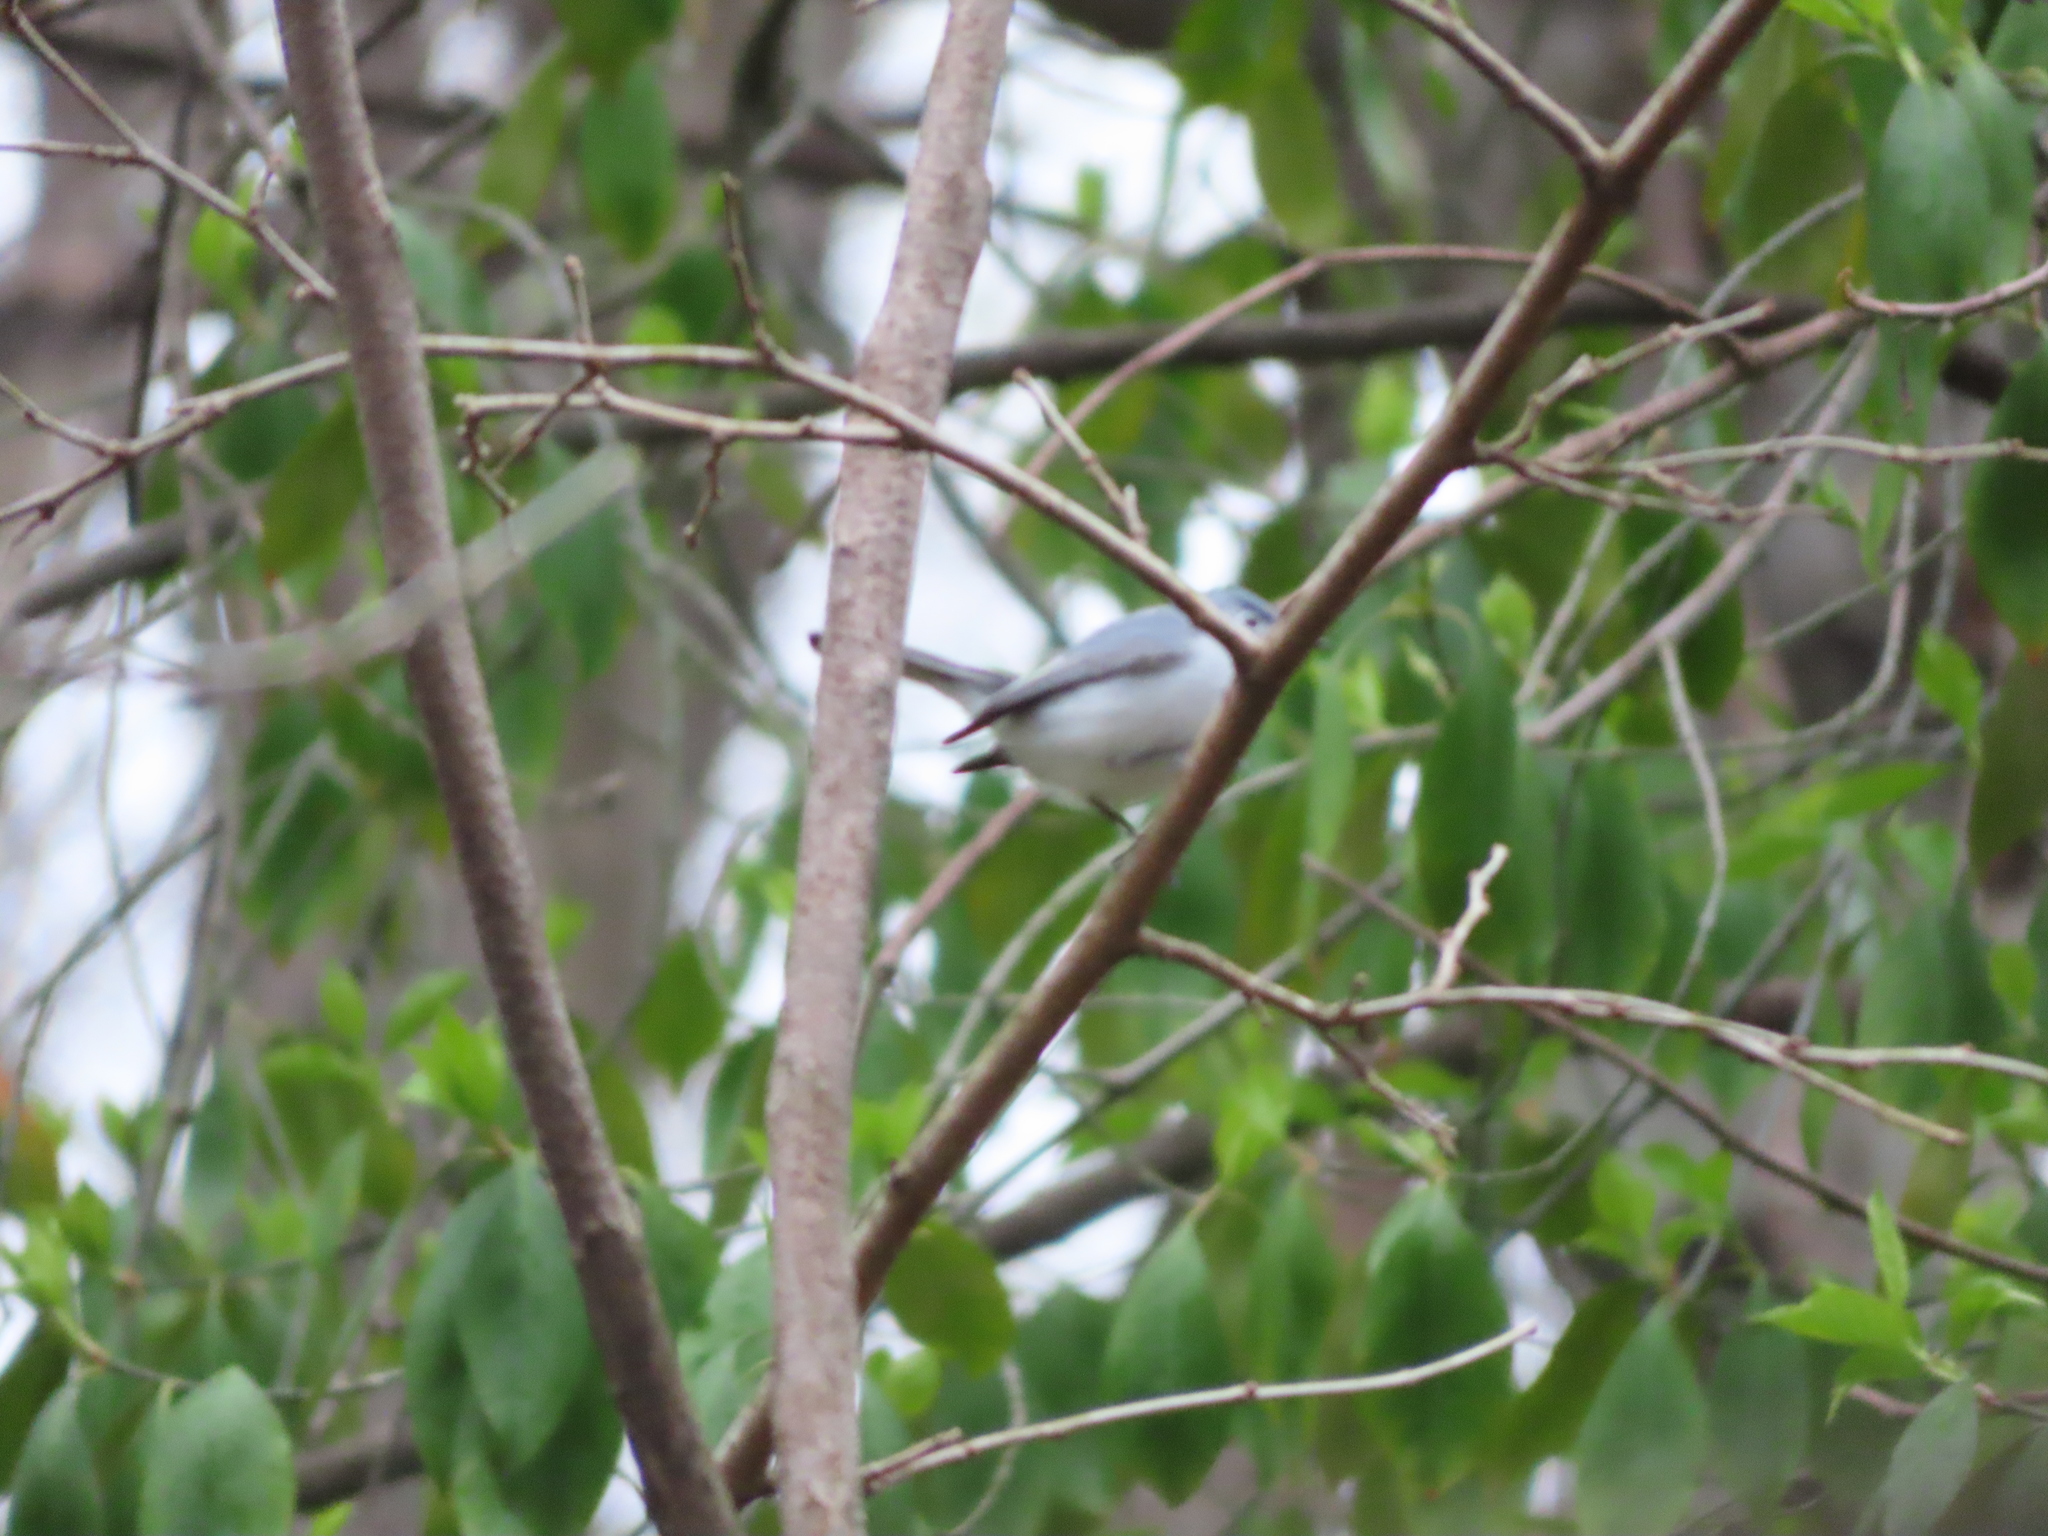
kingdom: Animalia
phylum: Chordata
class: Aves
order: Passeriformes
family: Polioptilidae
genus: Polioptila
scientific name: Polioptila caerulea
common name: Blue-gray gnatcatcher
